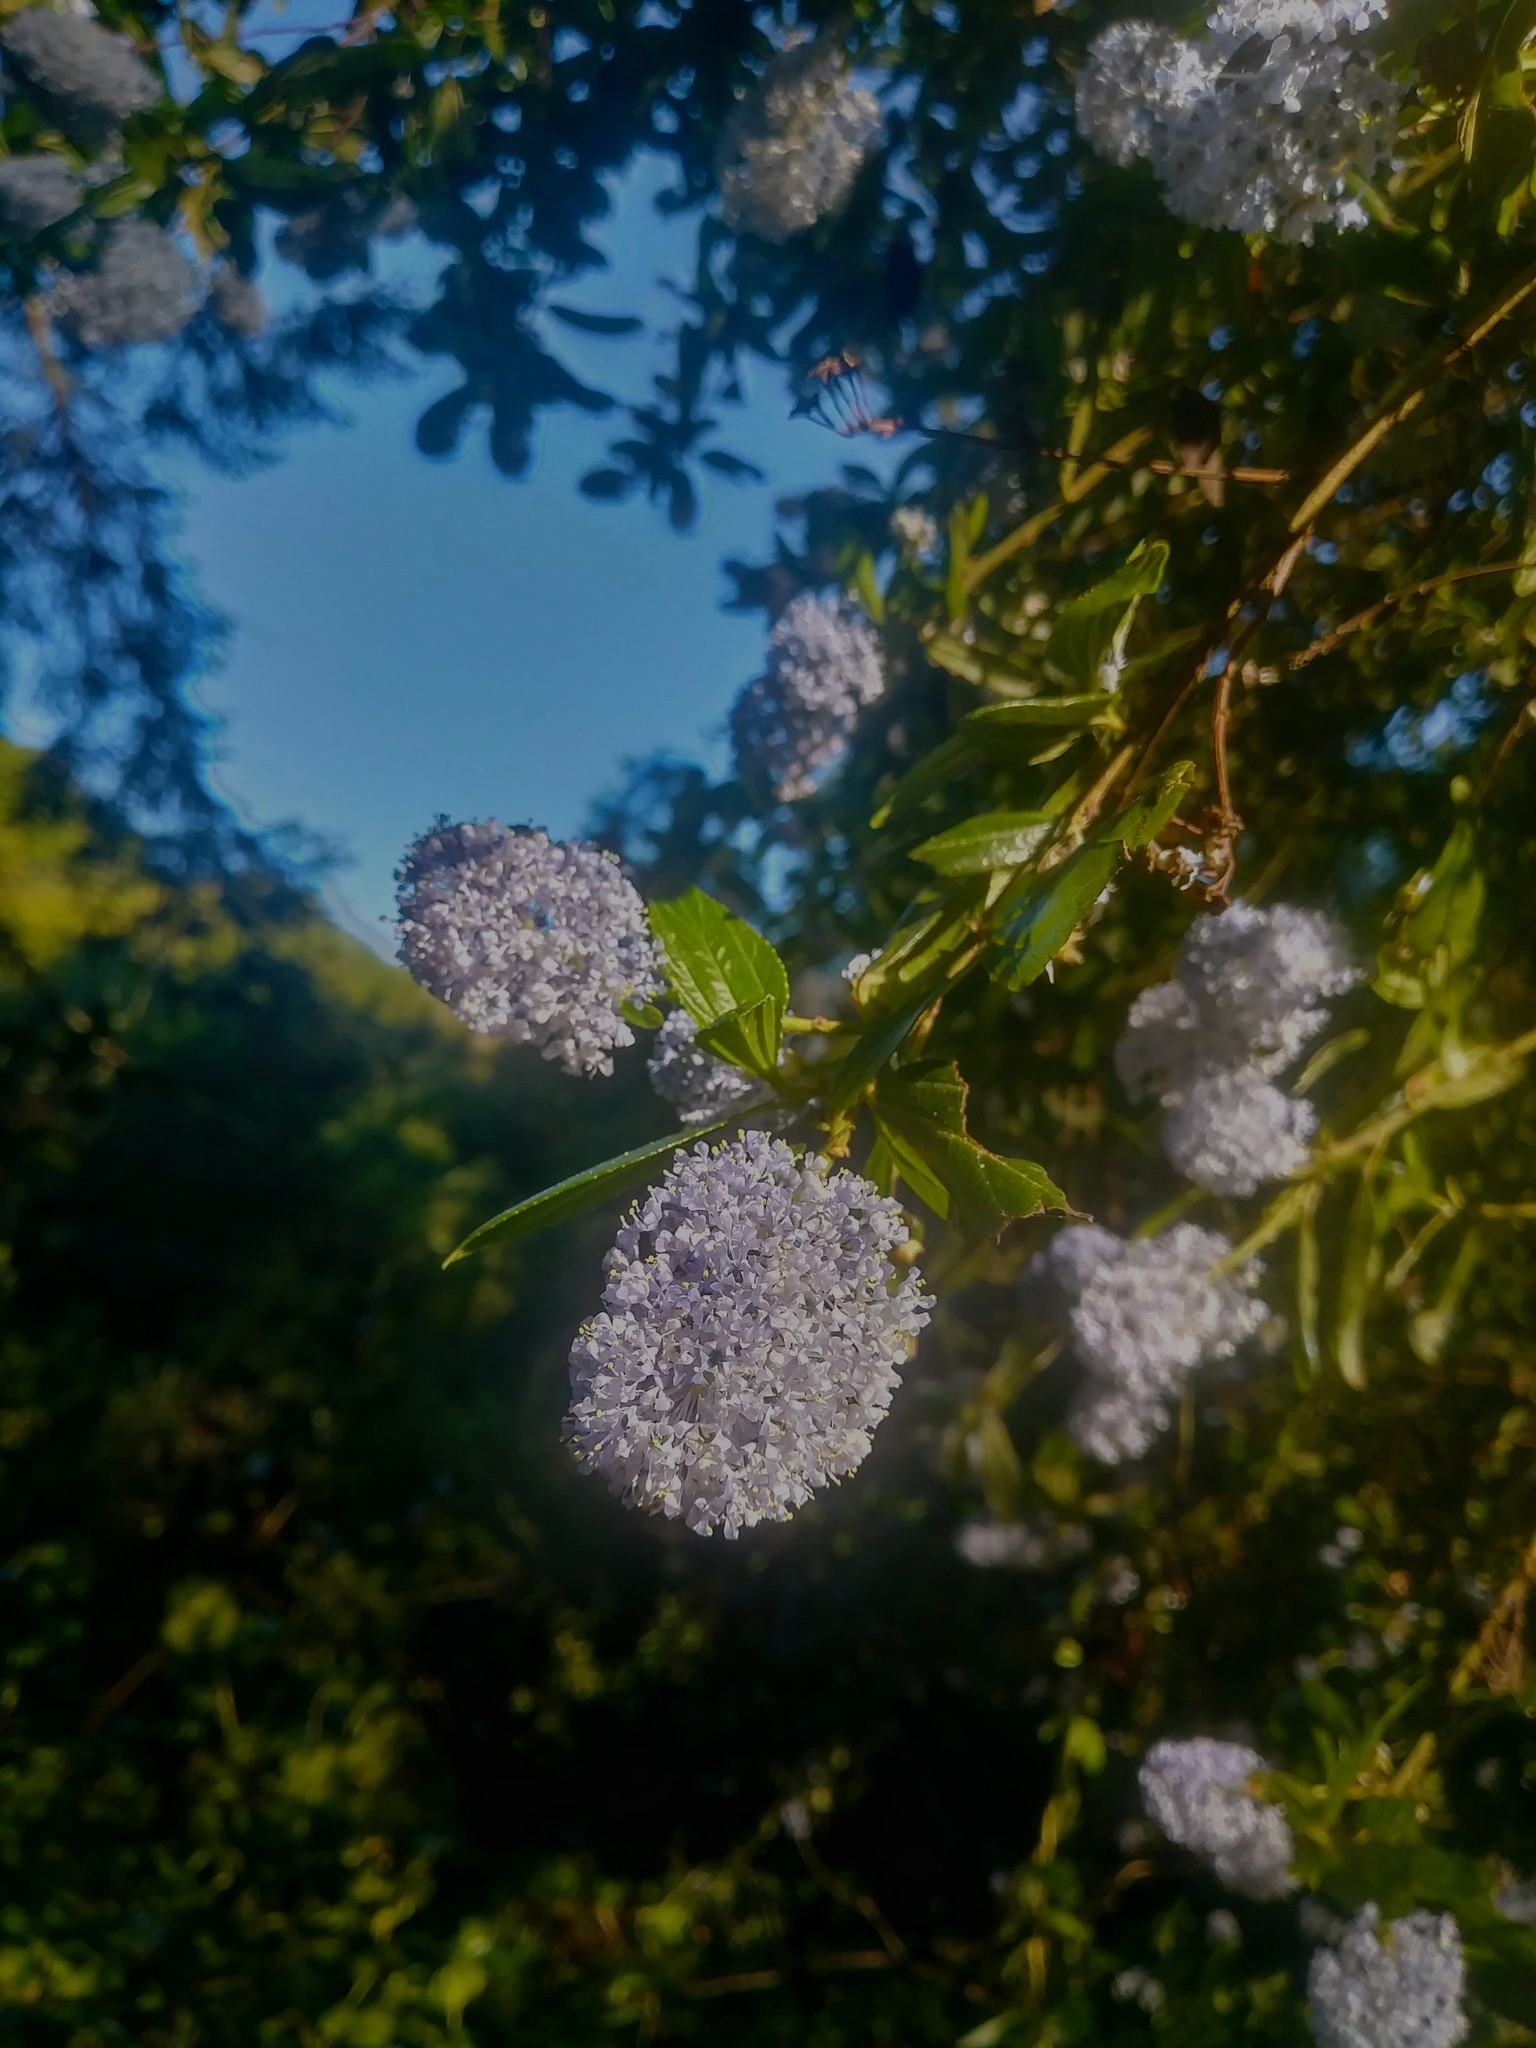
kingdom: Plantae
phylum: Tracheophyta
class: Magnoliopsida
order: Rosales
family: Rhamnaceae
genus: Ceanothus
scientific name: Ceanothus thyrsiflorus
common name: California-lilac
